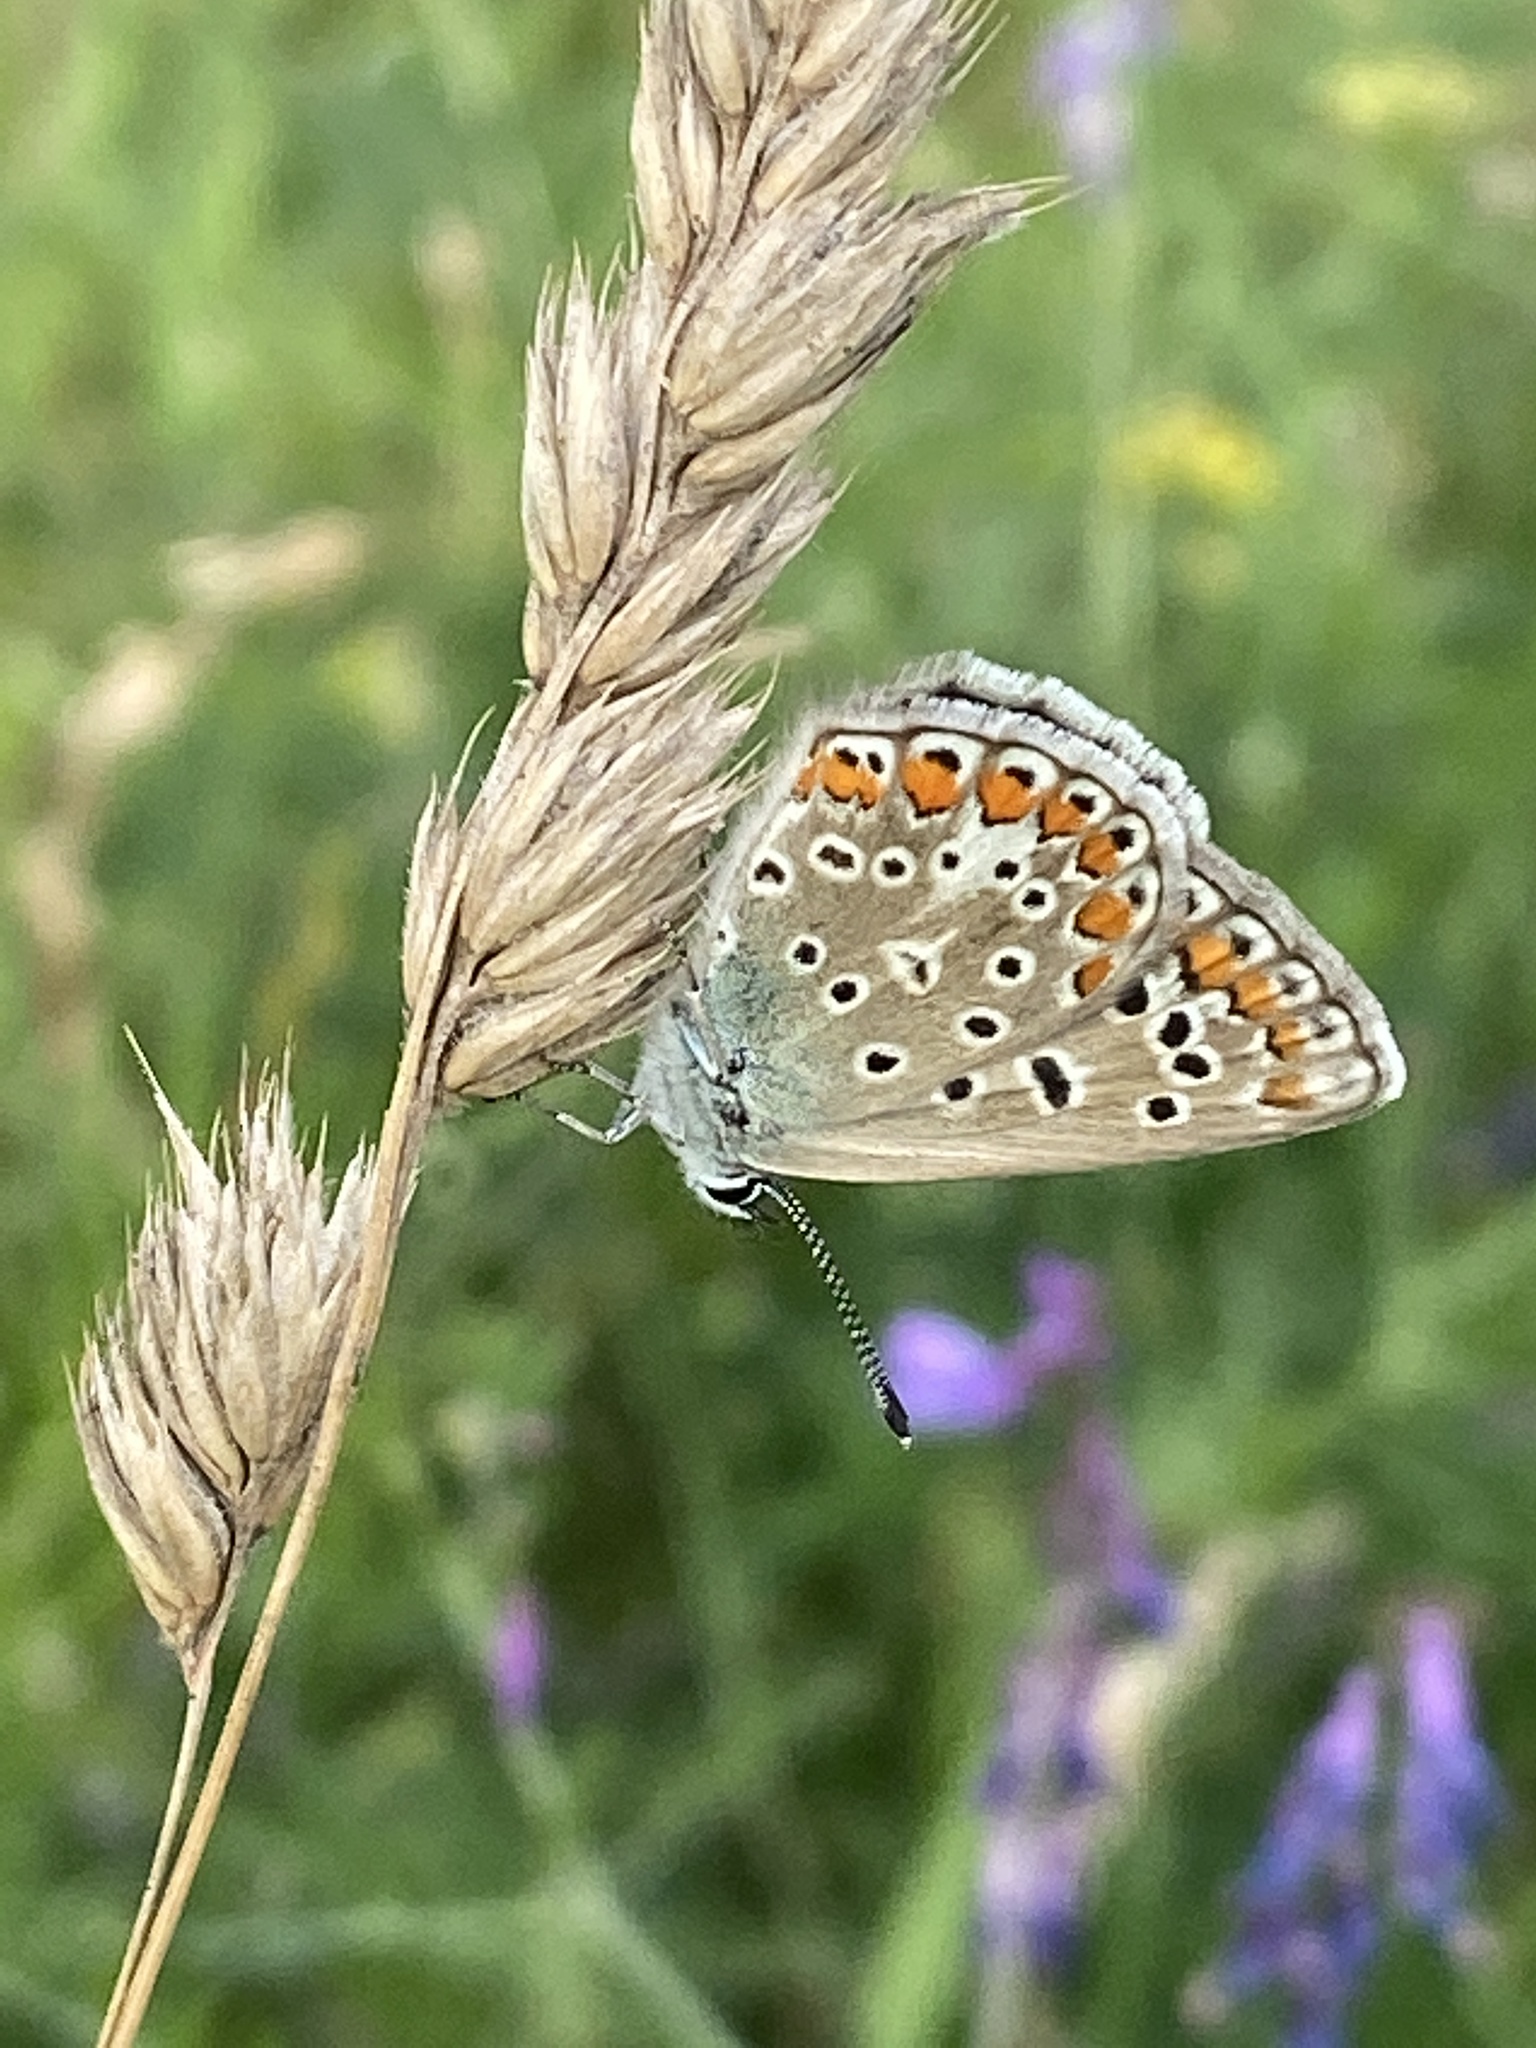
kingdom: Animalia
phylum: Arthropoda
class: Insecta
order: Lepidoptera
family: Lycaenidae
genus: Polyommatus
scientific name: Polyommatus icarus
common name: Common blue
